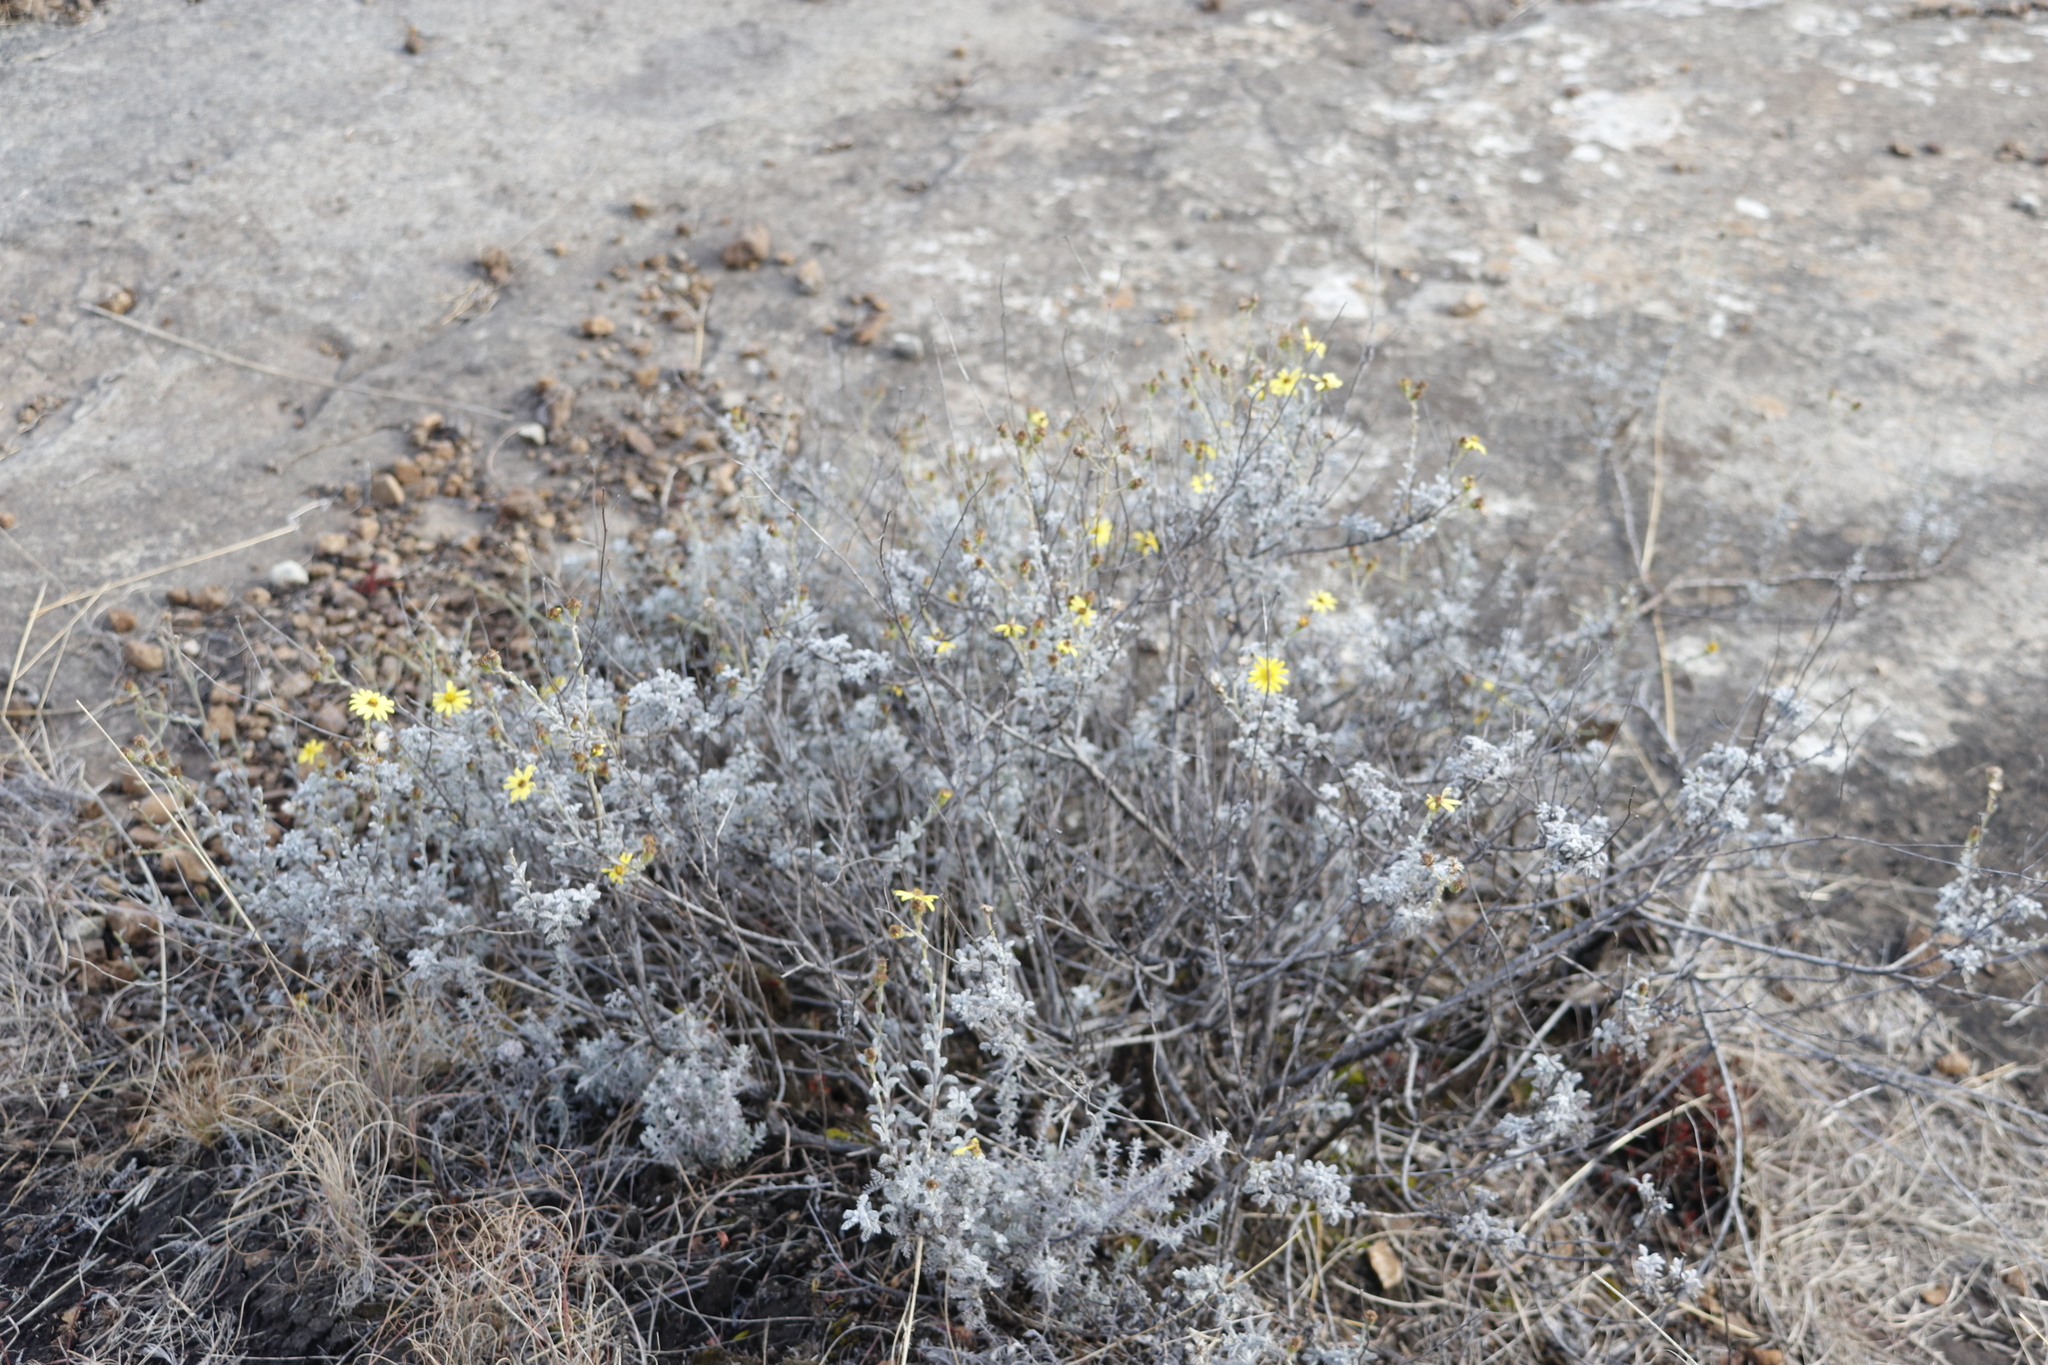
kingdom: Plantae
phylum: Tracheophyta
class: Magnoliopsida
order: Asterales
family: Asteraceae
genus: Senecio
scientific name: Senecio seminiveus
